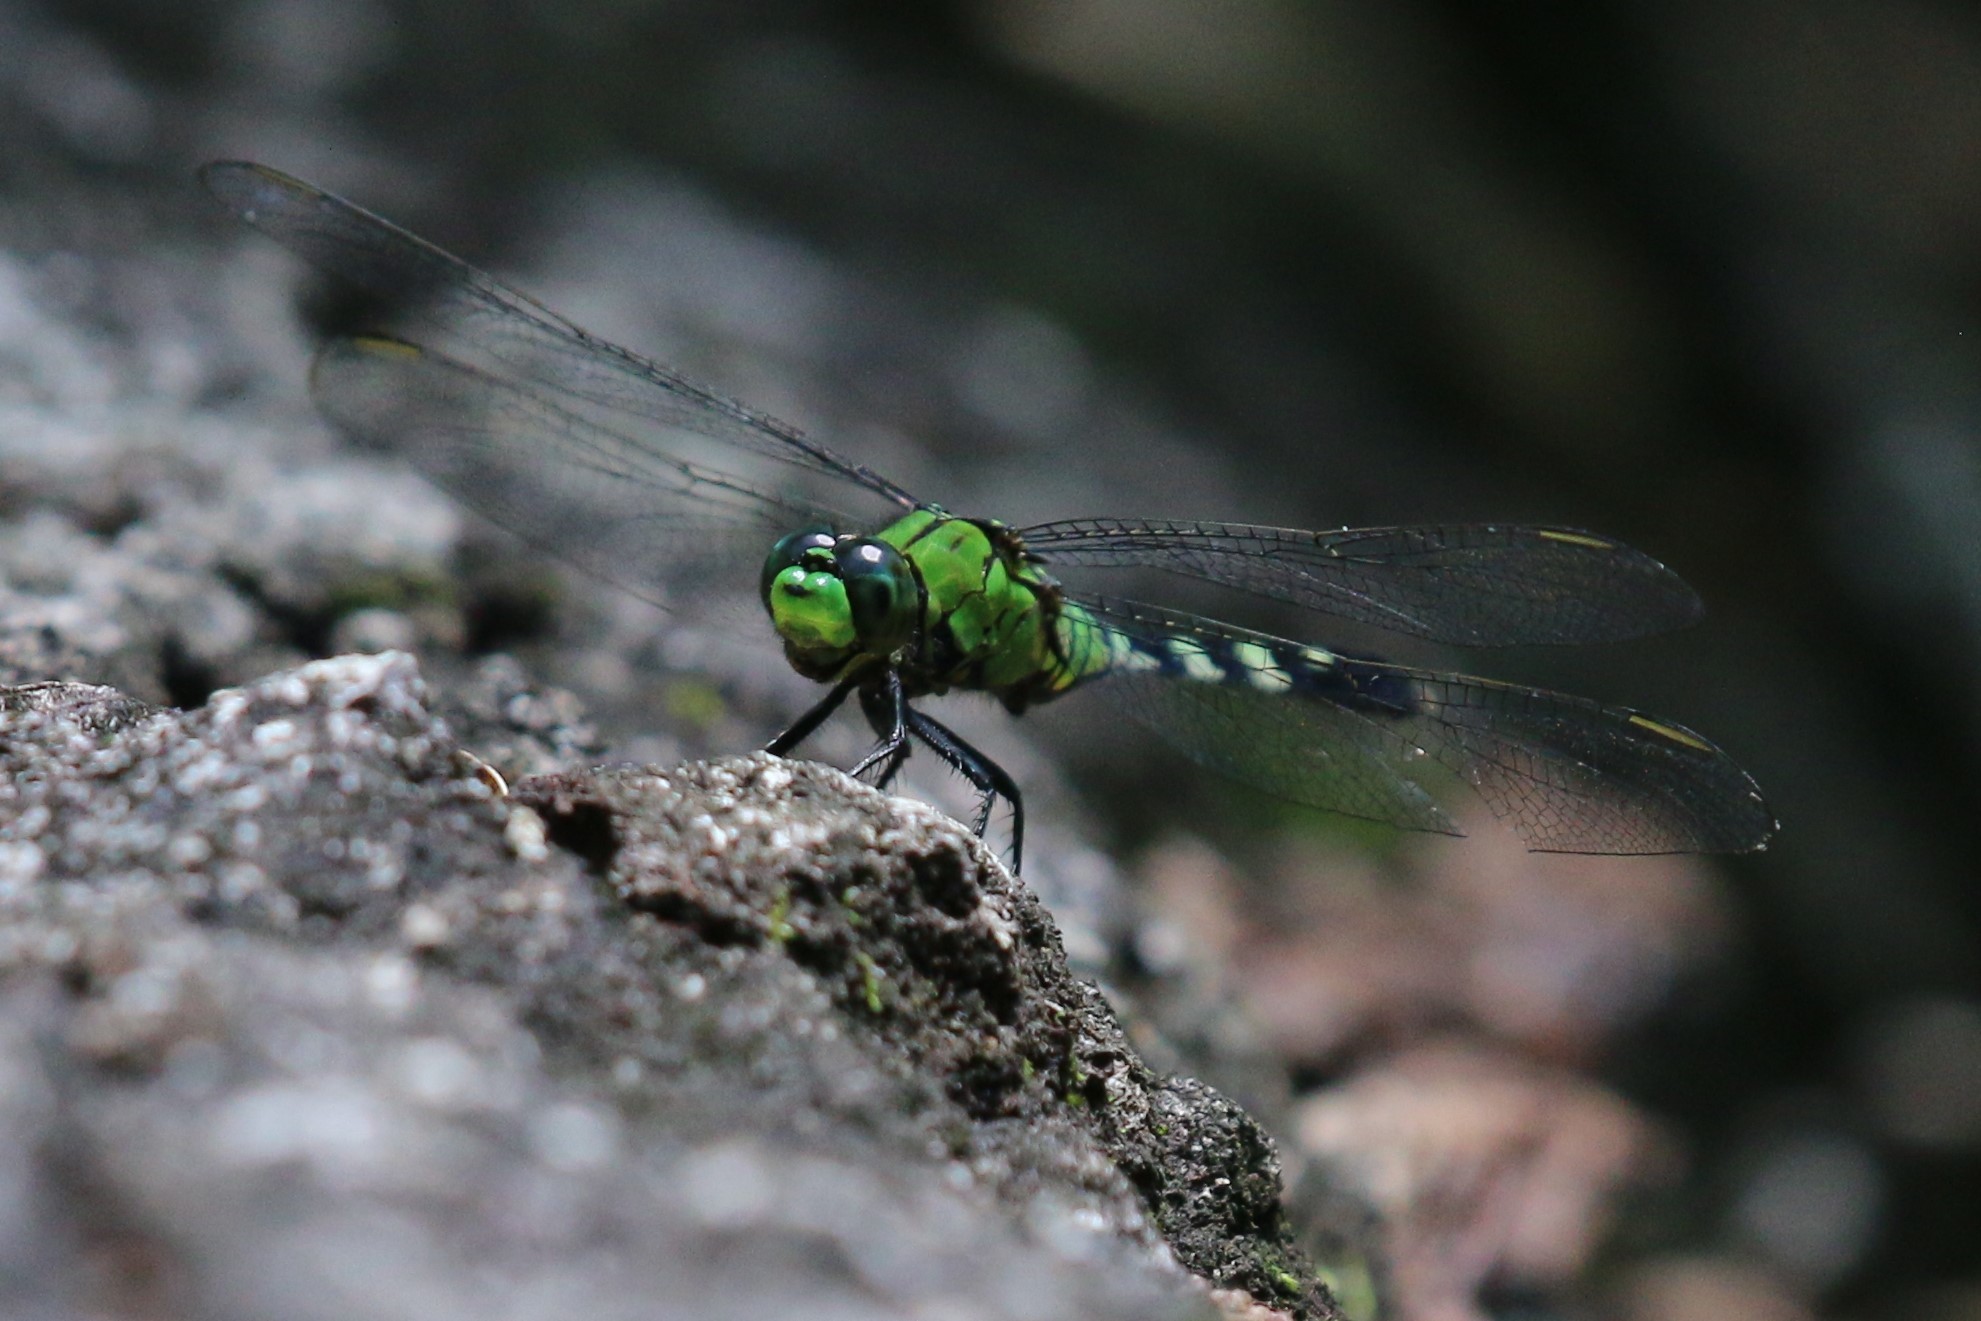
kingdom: Animalia
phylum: Arthropoda
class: Insecta
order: Odonata
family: Libellulidae
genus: Erythemis
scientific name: Erythemis simplicicollis
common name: Eastern pondhawk
